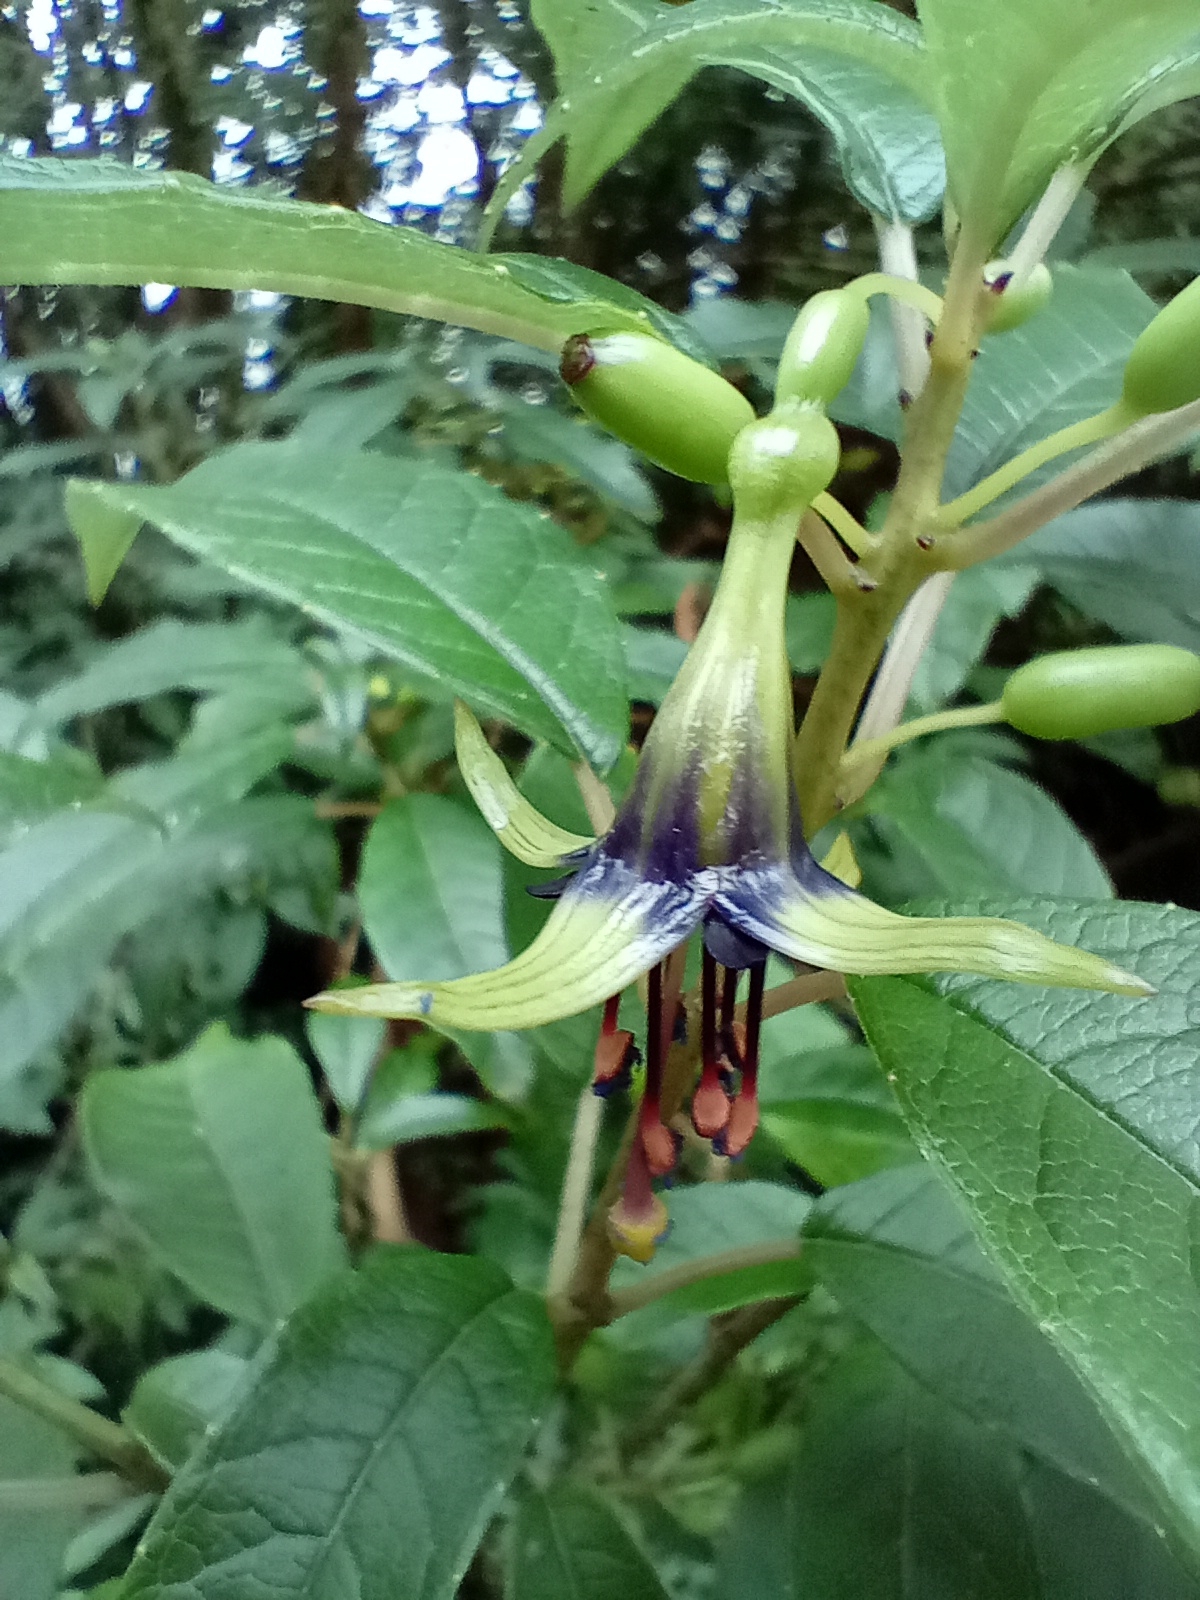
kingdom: Plantae
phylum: Tracheophyta
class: Magnoliopsida
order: Myrtales
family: Onagraceae
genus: Fuchsia
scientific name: Fuchsia excorticata
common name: Tree fuchsia
